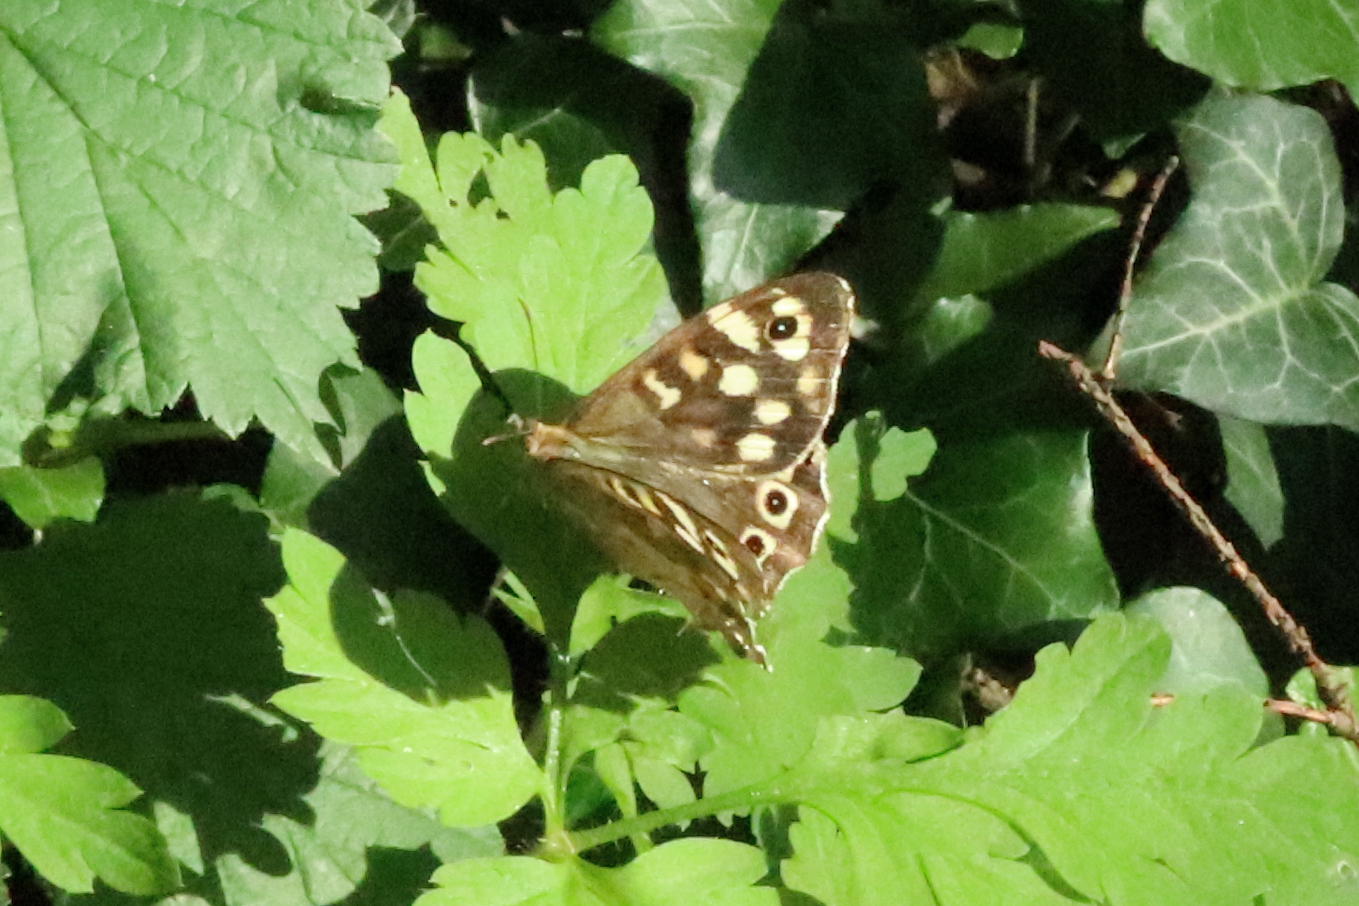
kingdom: Animalia
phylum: Arthropoda
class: Insecta
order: Lepidoptera
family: Nymphalidae
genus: Pararge
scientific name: Pararge aegeria
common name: Speckled wood
